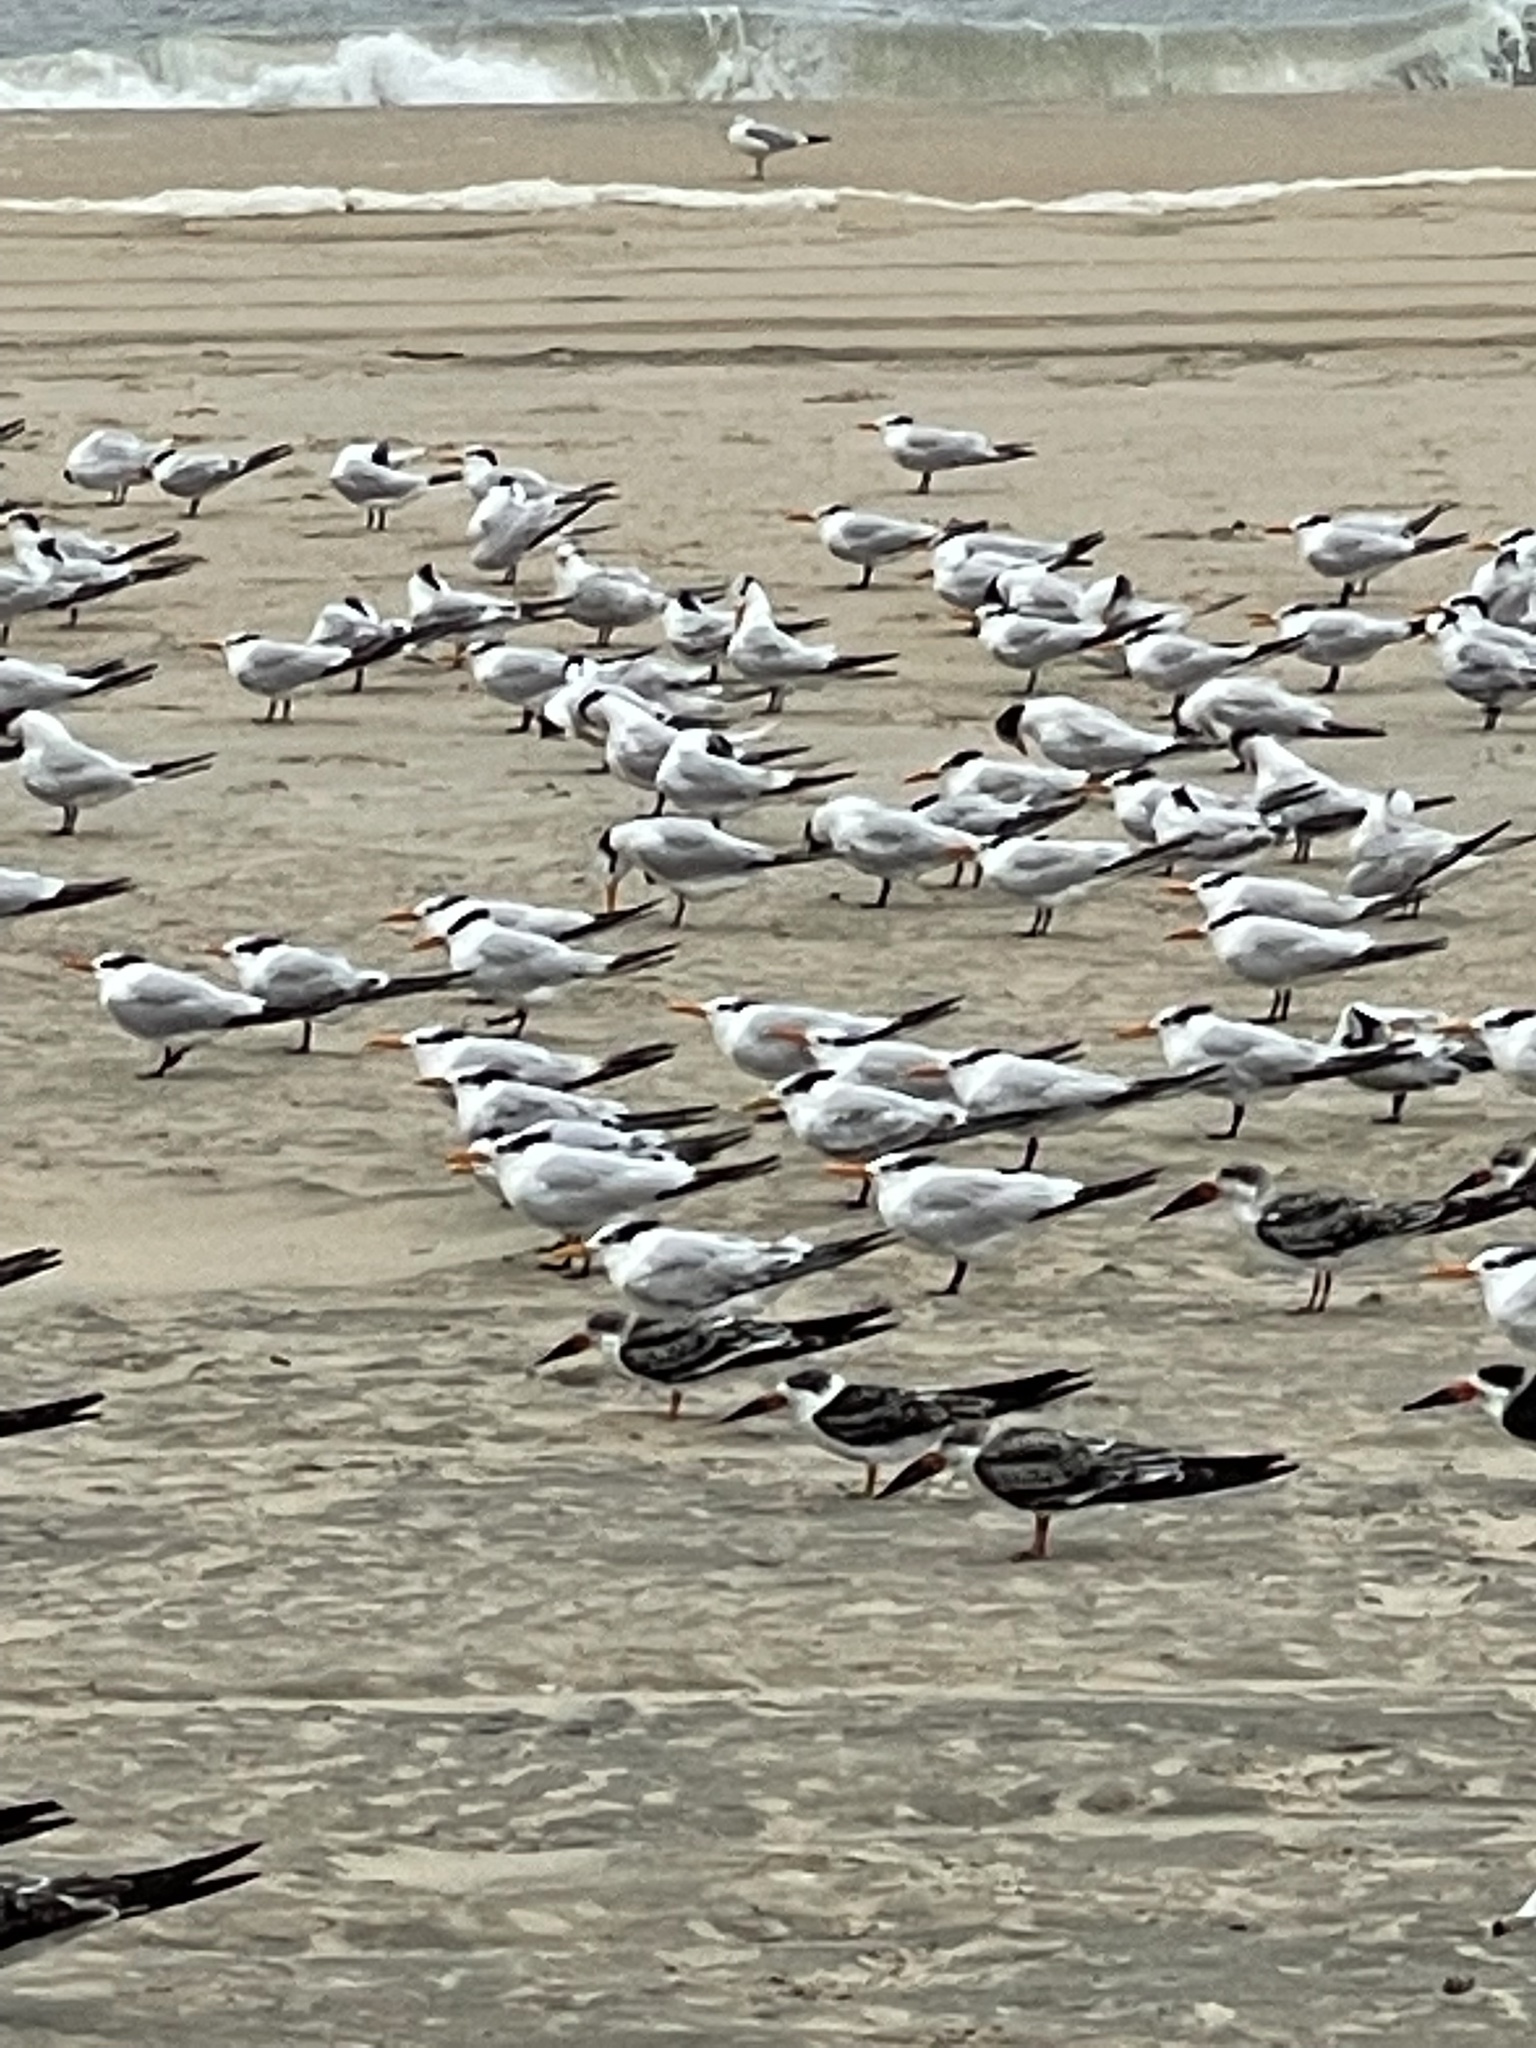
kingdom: Animalia
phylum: Chordata
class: Aves
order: Charadriiformes
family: Laridae
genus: Thalasseus
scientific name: Thalasseus maximus
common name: Royal tern
